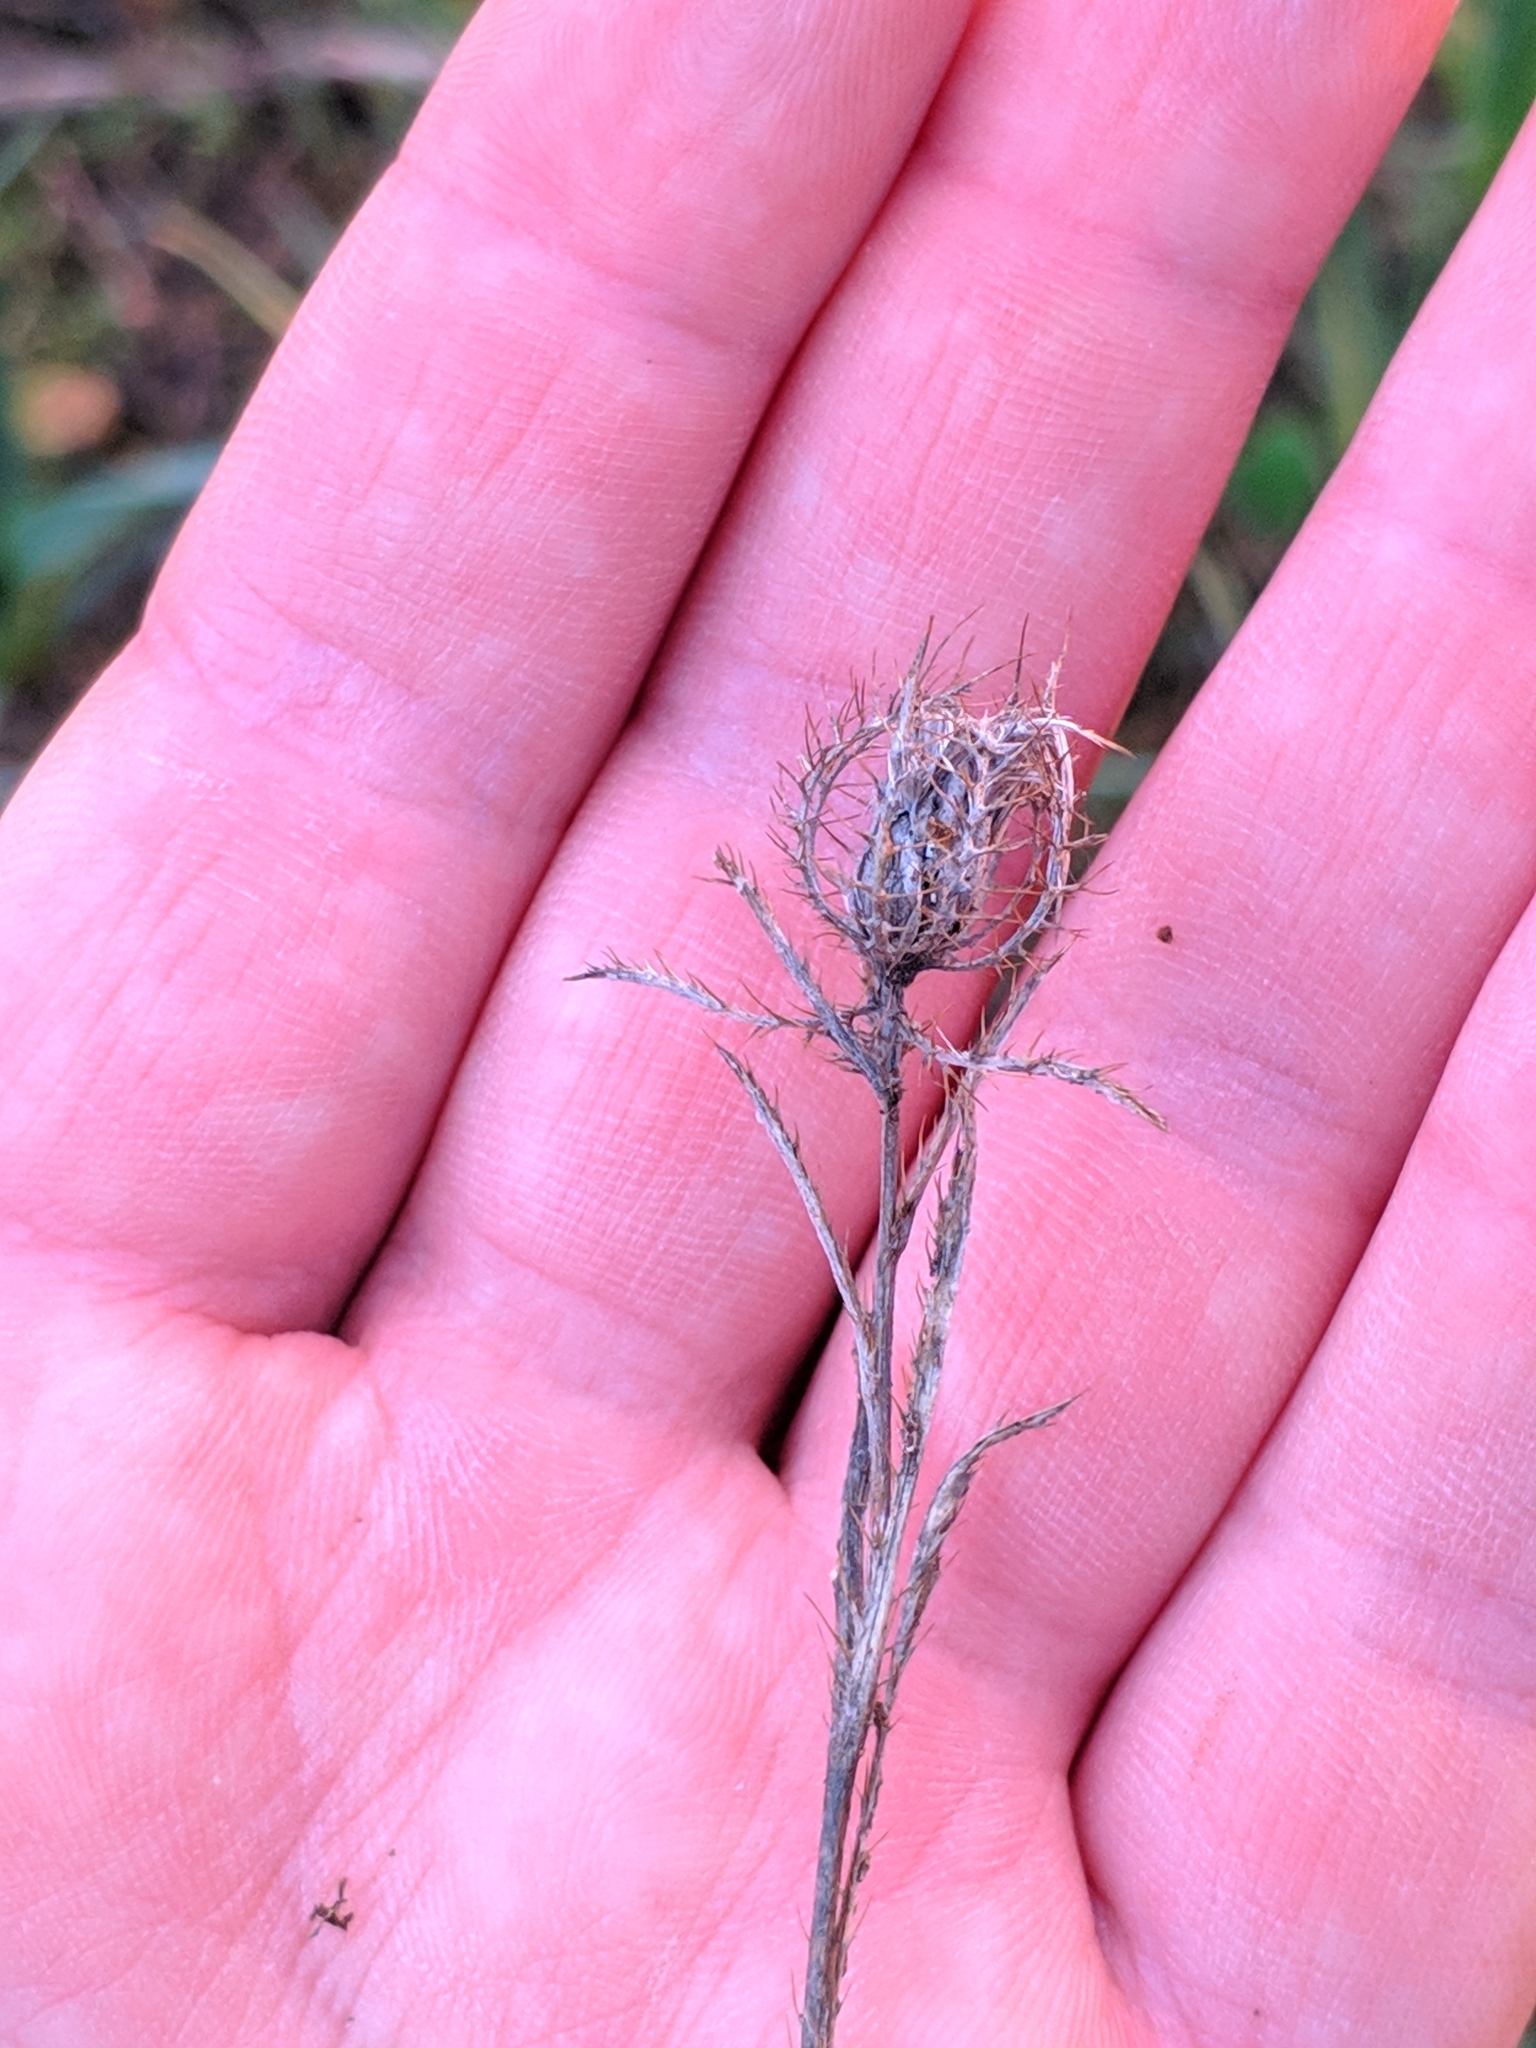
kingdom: Plantae
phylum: Tracheophyta
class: Magnoliopsida
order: Asterales
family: Asteraceae
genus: Atractylis
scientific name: Atractylis cancellata
